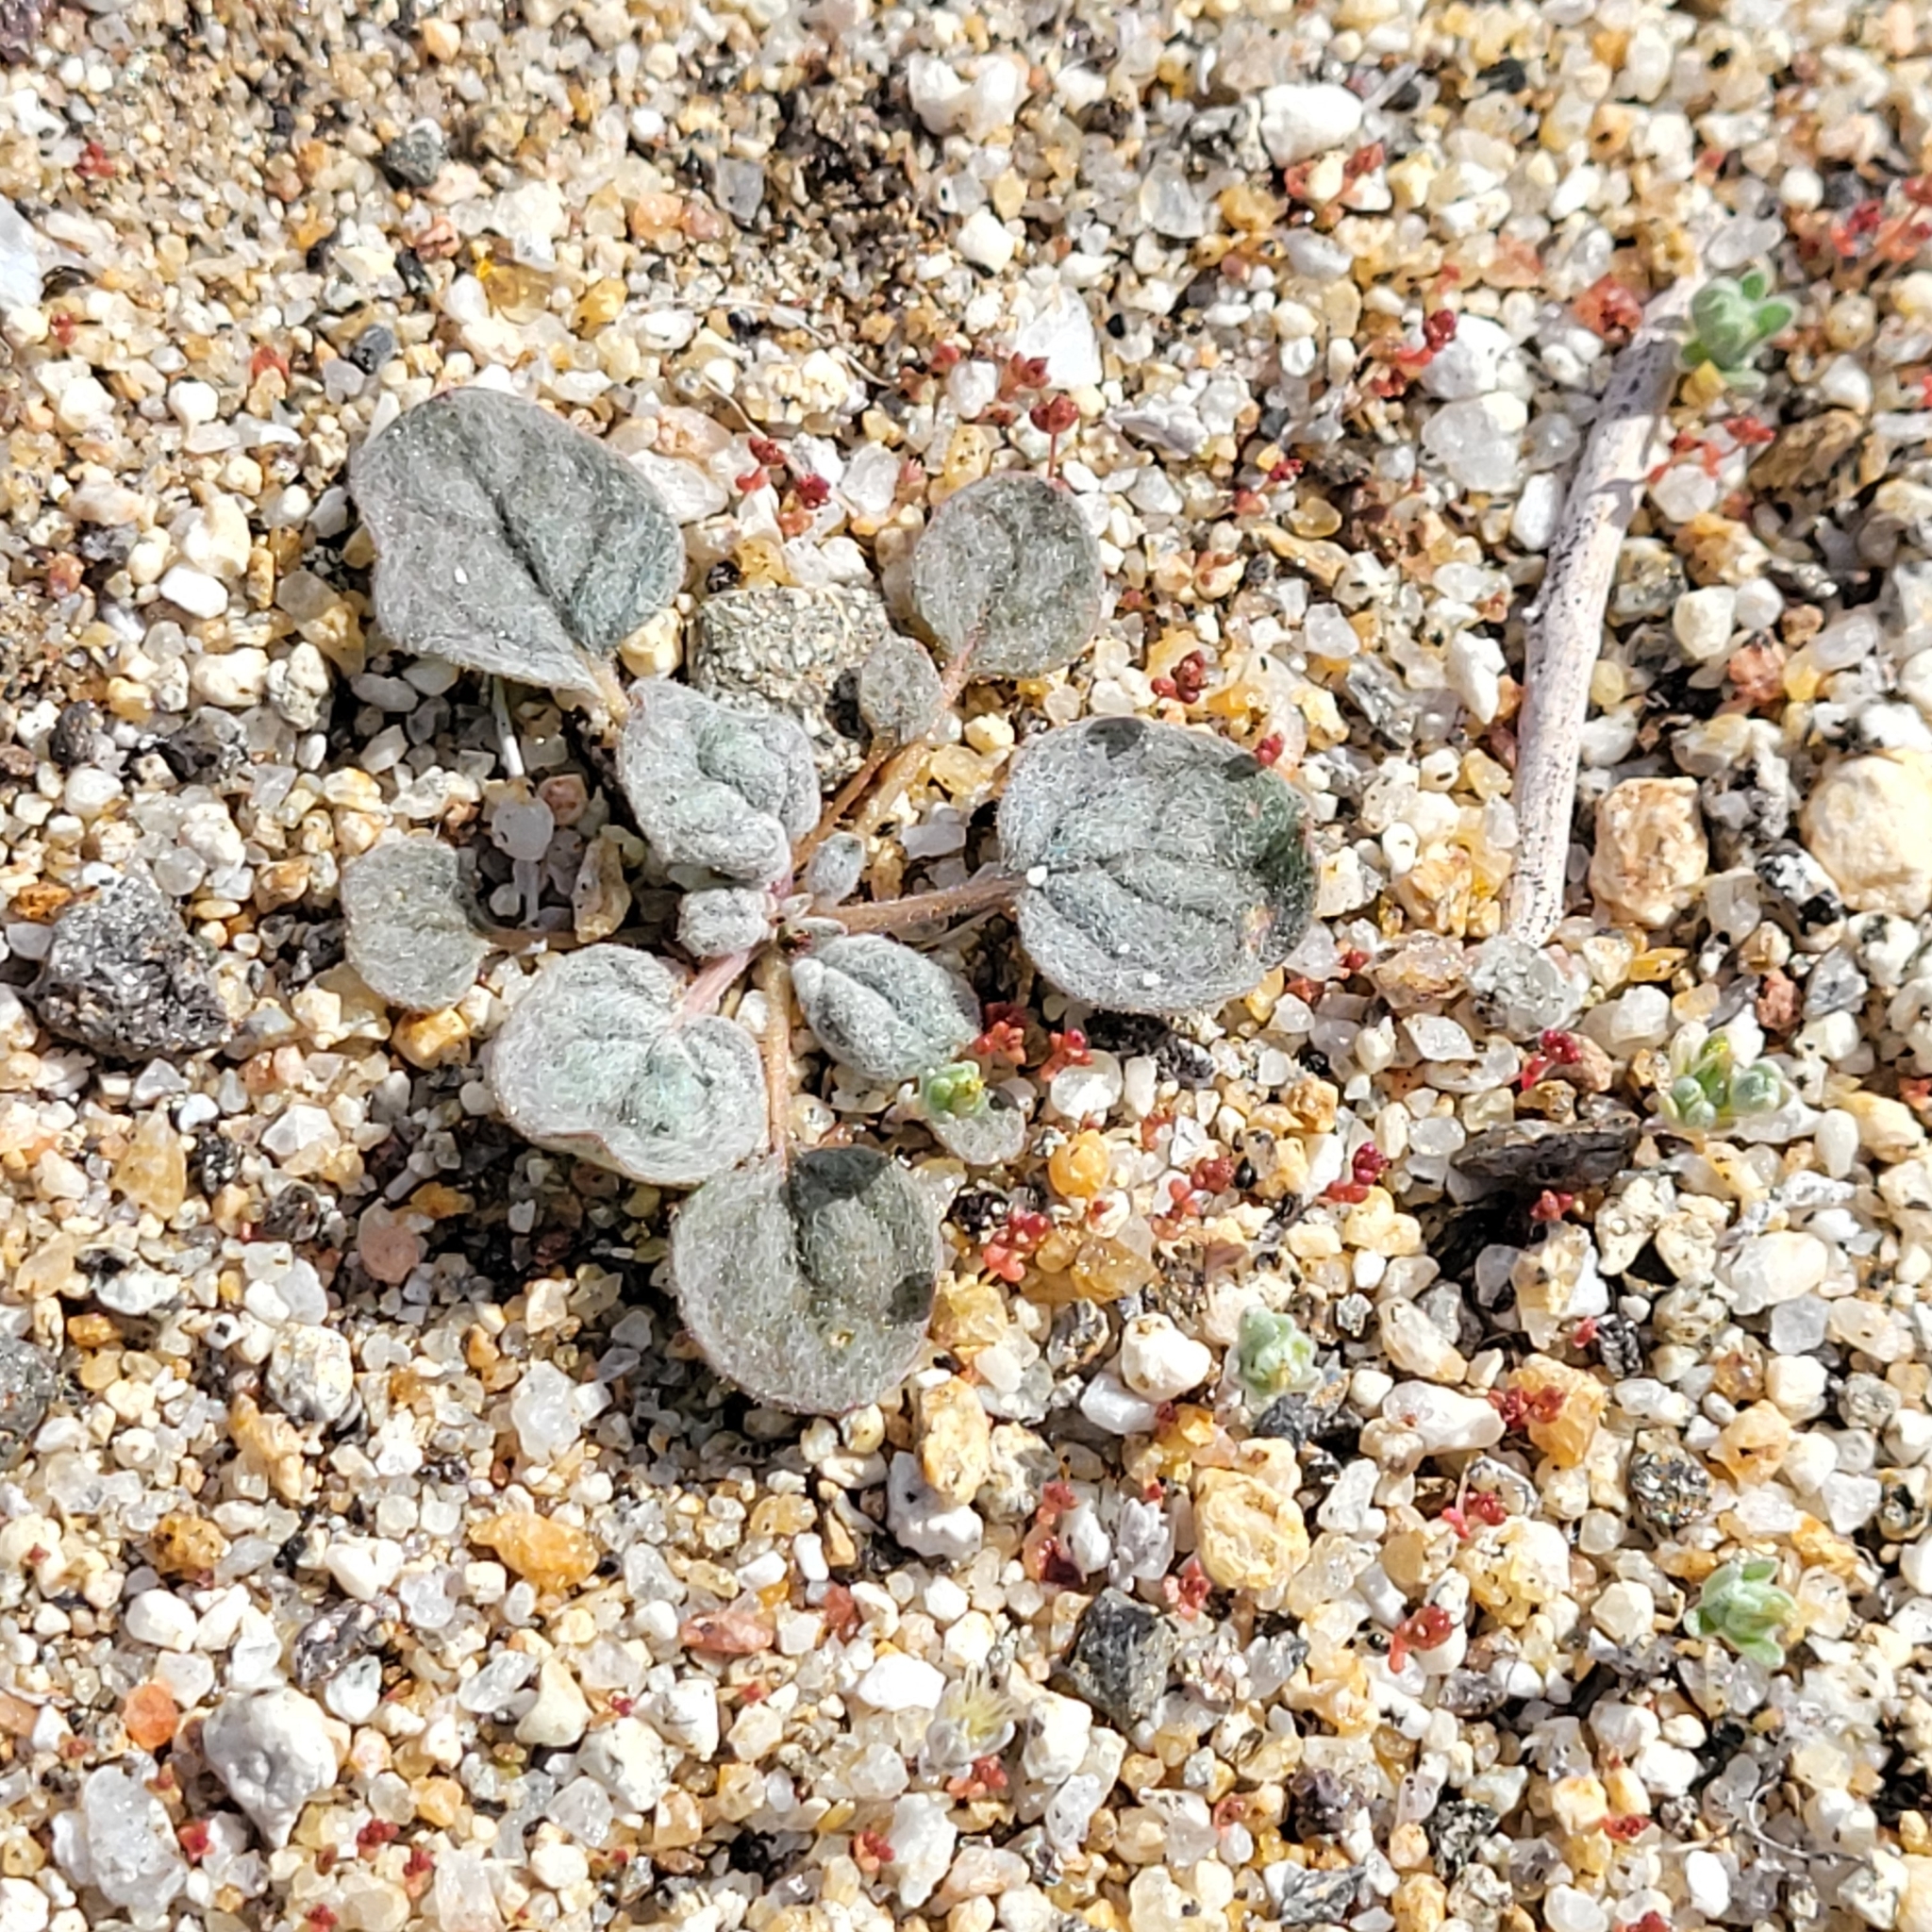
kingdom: Plantae
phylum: Tracheophyta
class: Magnoliopsida
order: Caryophyllales
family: Polygonaceae
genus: Eriogonum
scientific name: Eriogonum thomasii
